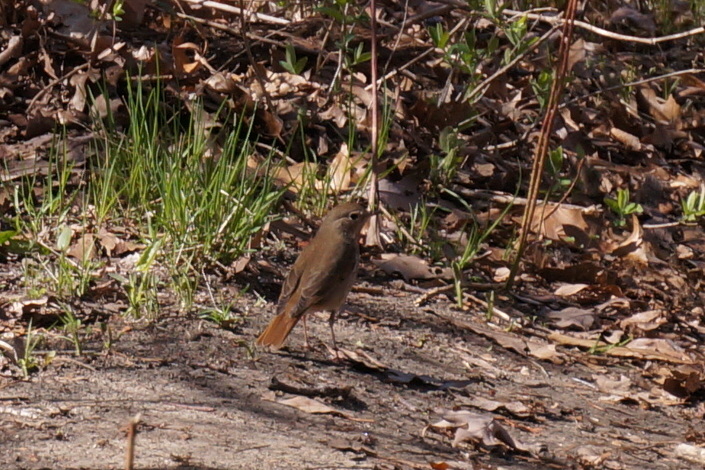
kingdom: Animalia
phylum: Chordata
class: Aves
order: Passeriformes
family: Turdidae
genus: Catharus
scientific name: Catharus guttatus
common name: Hermit thrush
